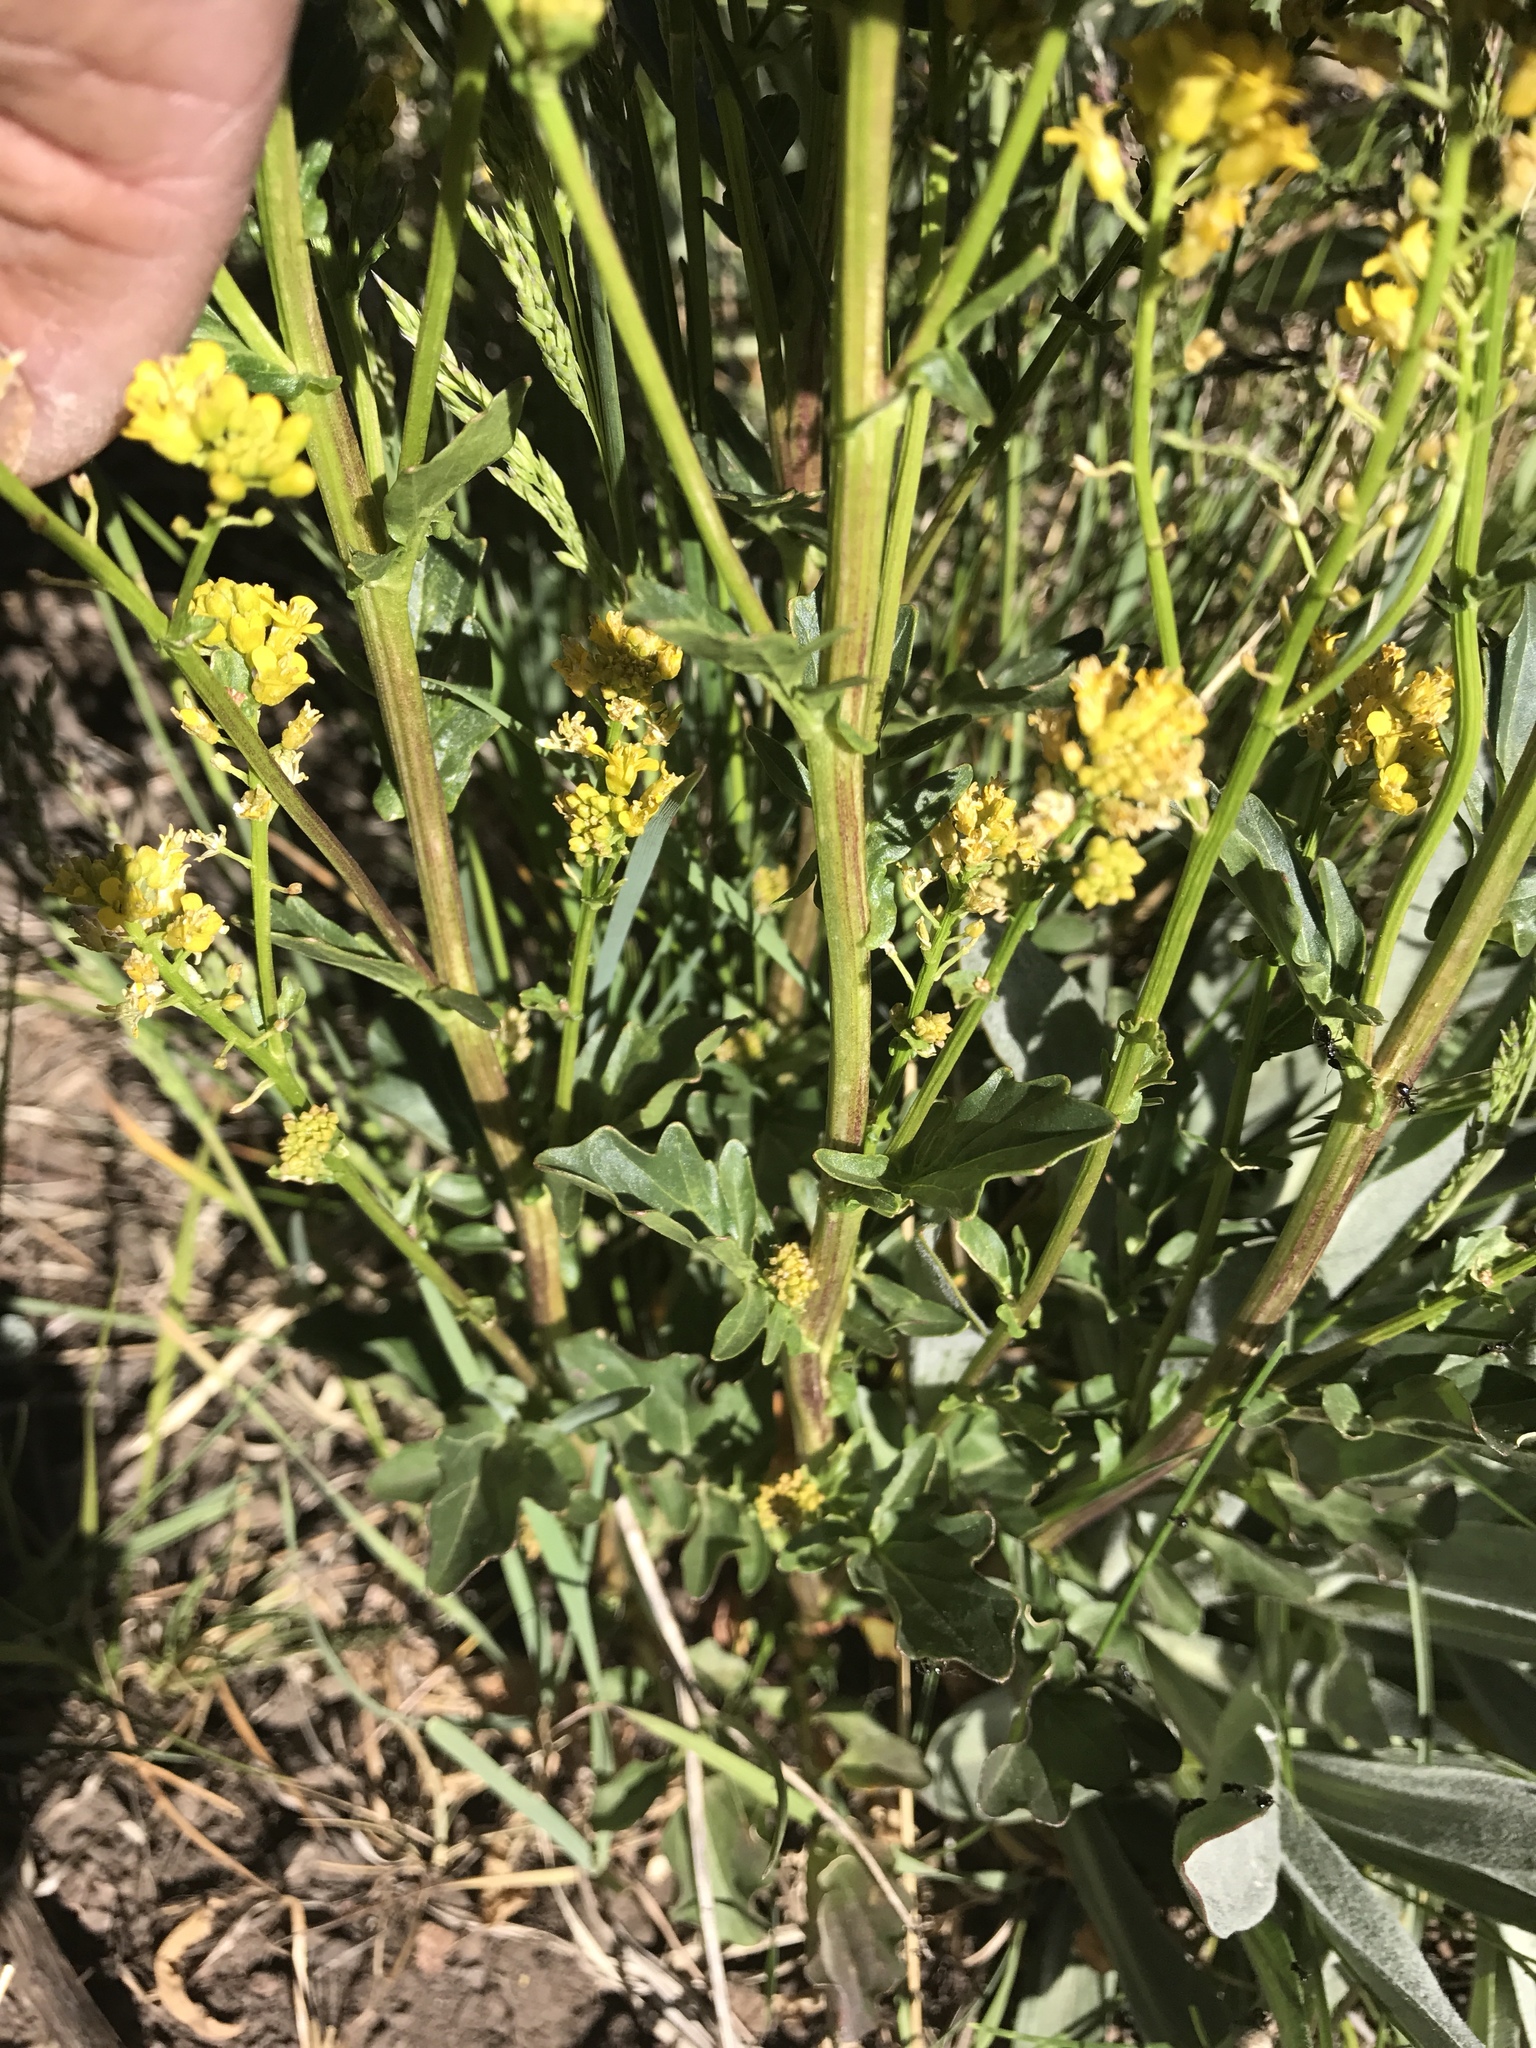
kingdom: Plantae
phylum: Tracheophyta
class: Magnoliopsida
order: Brassicales
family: Brassicaceae
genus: Barbarea
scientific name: Barbarea orthoceras
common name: American wintercress
